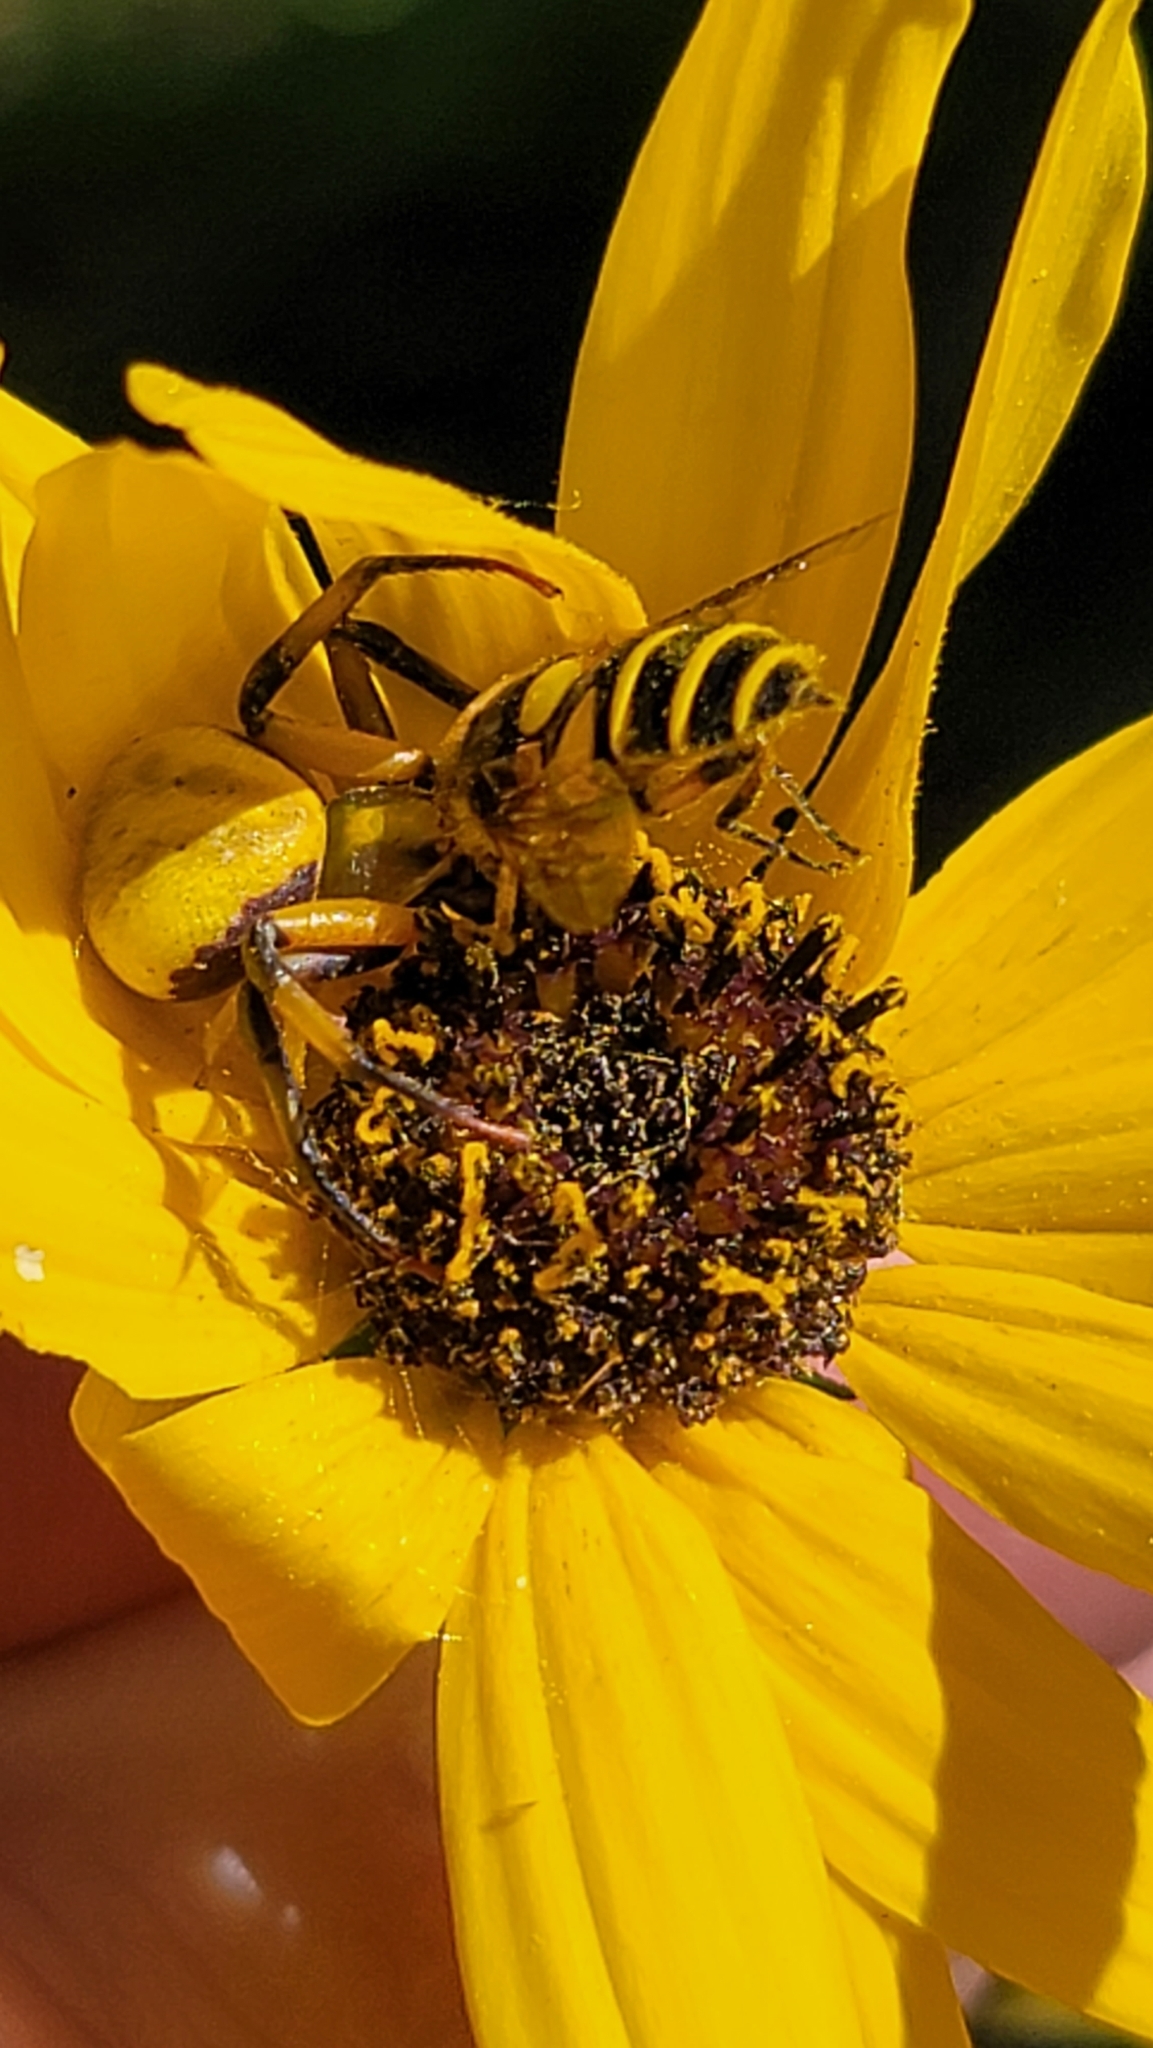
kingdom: Animalia
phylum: Arthropoda
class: Arachnida
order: Araneae
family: Thomisidae
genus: Misumenoides
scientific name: Misumenoides formosipes
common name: White-banded crab spider
